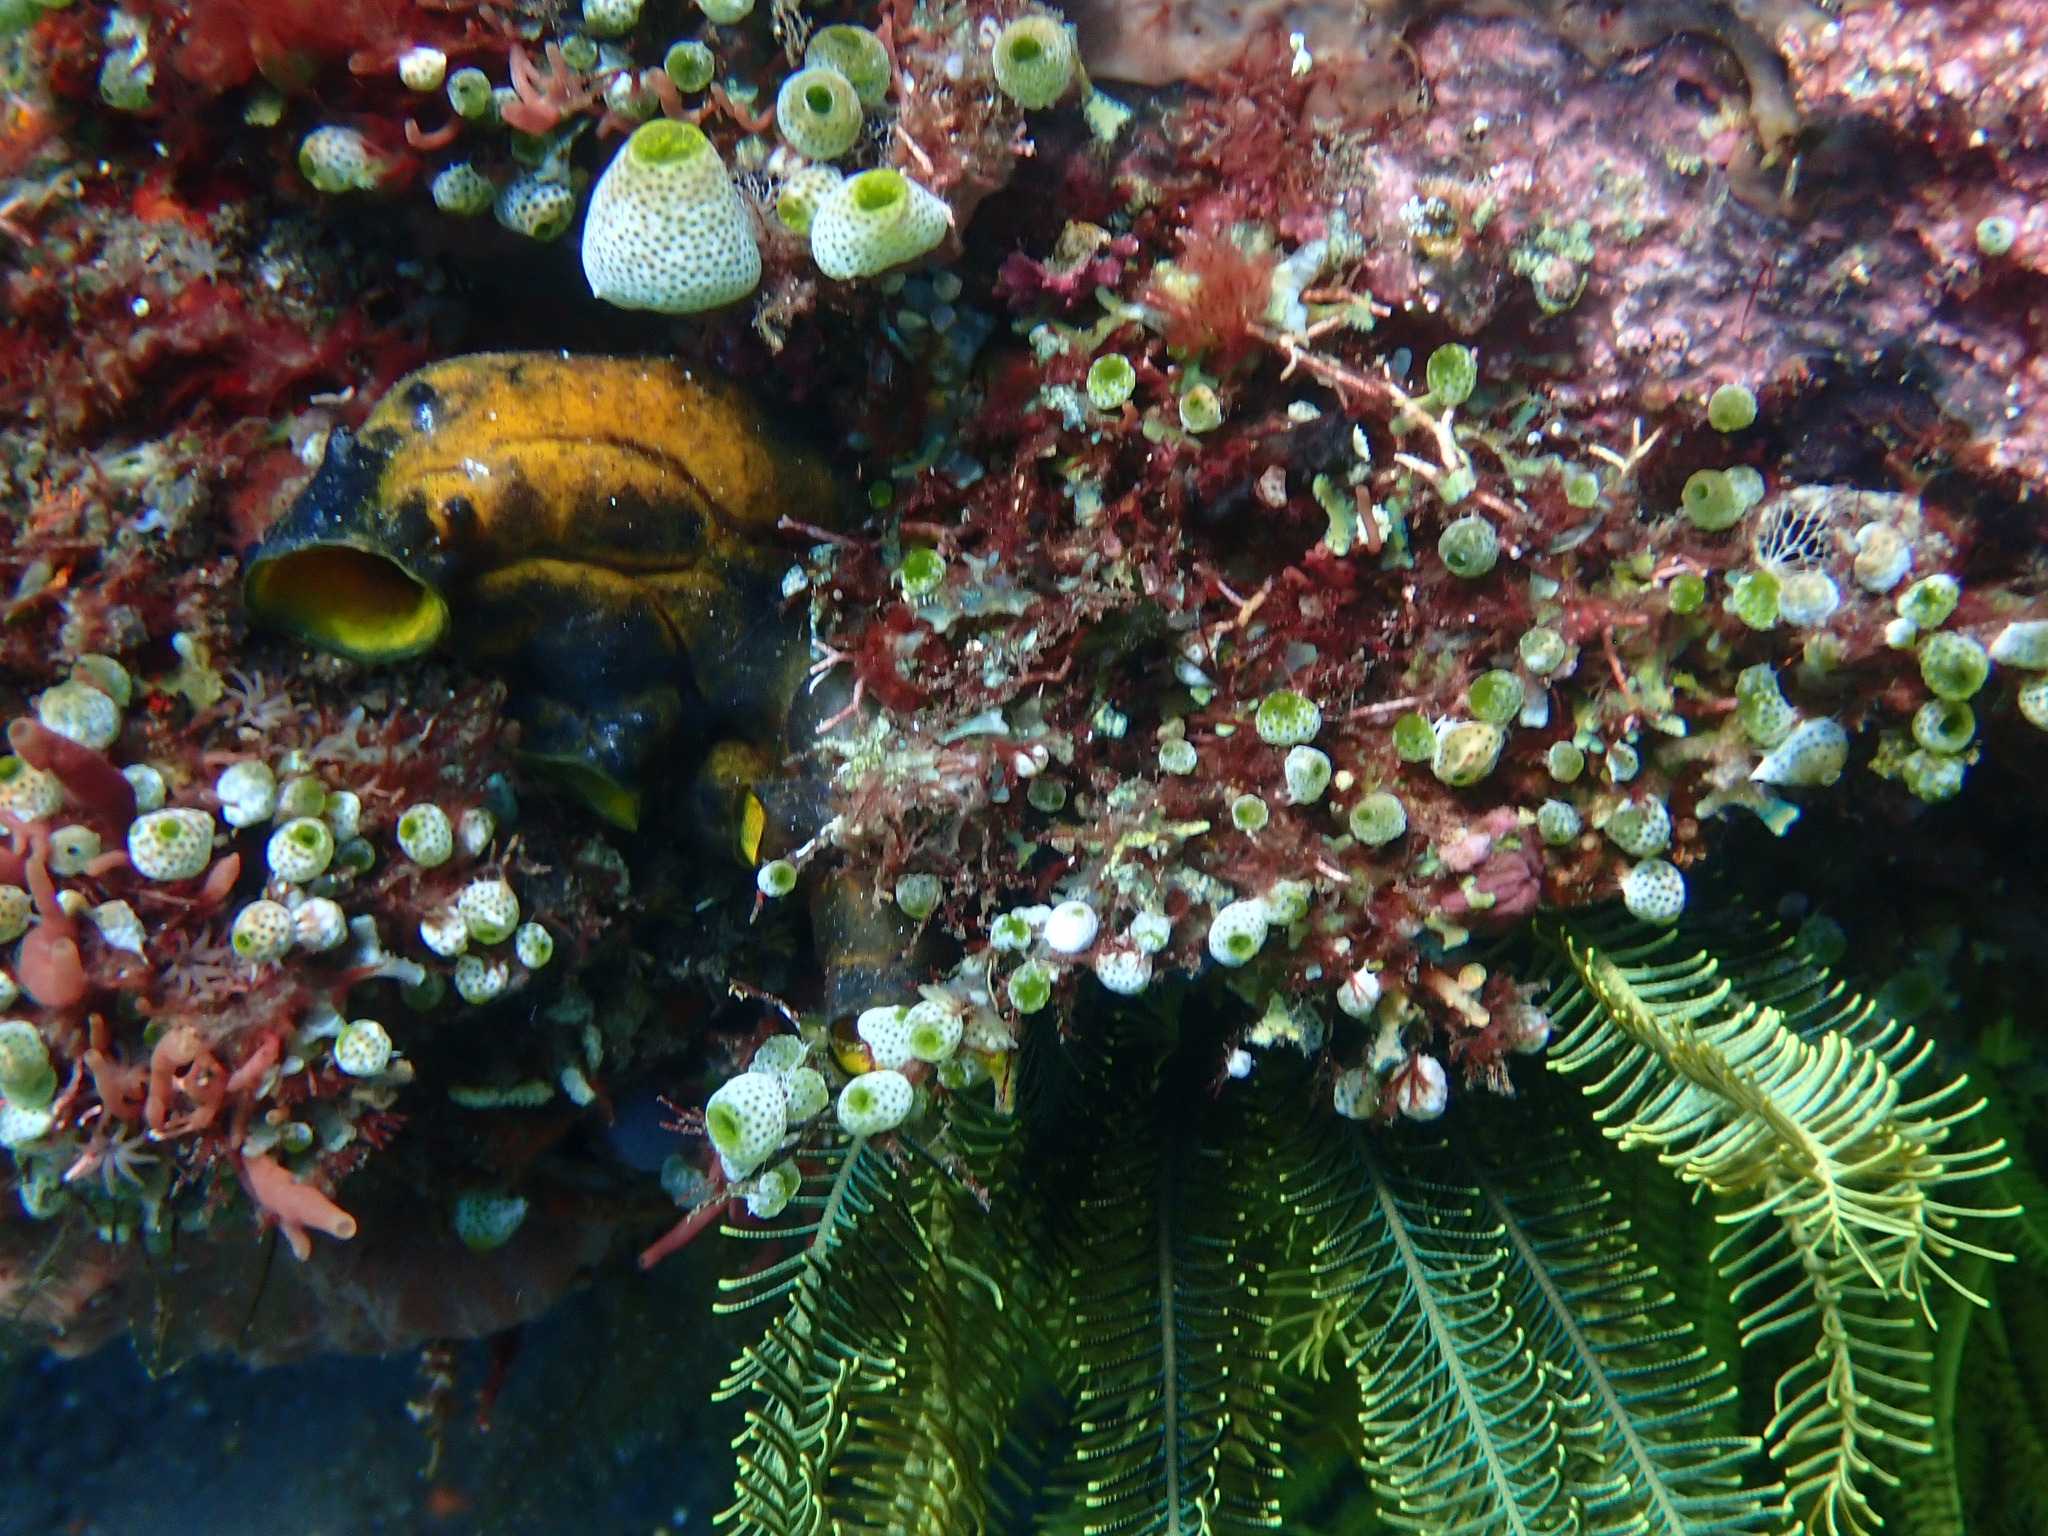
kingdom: Animalia
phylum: Chordata
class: Ascidiacea
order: Stolidobranchia
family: Styelidae
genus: Polycarpa
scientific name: Polycarpa aurata
